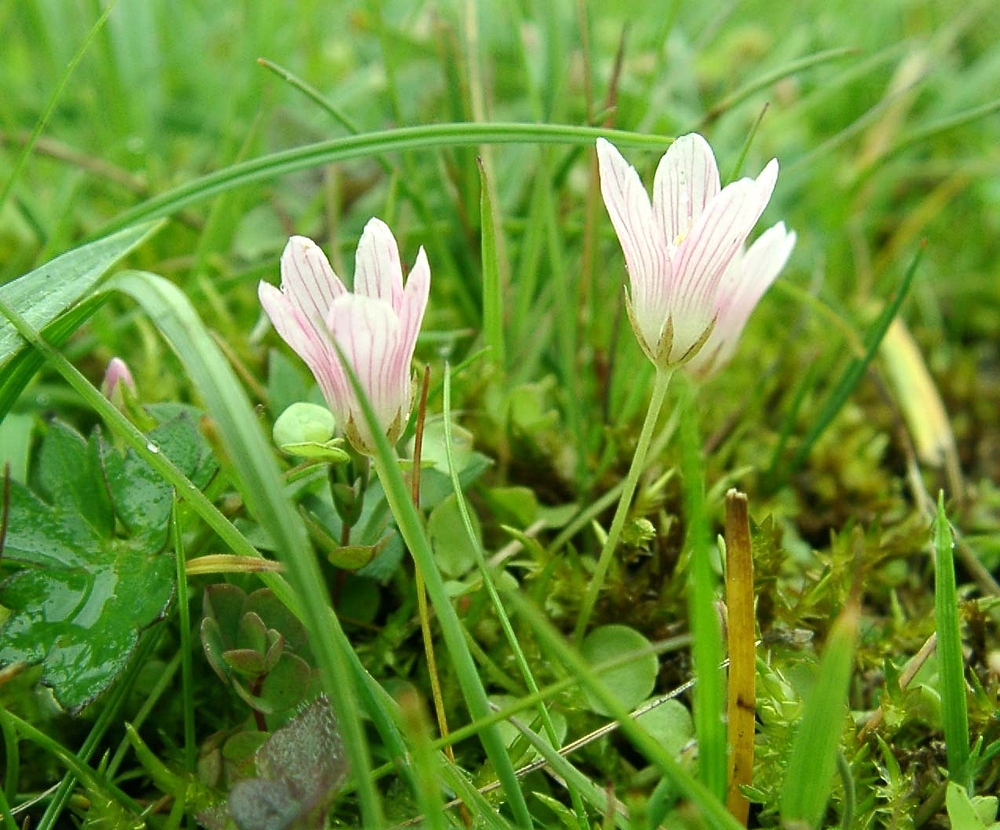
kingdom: Plantae
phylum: Tracheophyta
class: Magnoliopsida
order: Ericales
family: Primulaceae
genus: Lysimachia
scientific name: Lysimachia tenella
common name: European bog pimpernel
